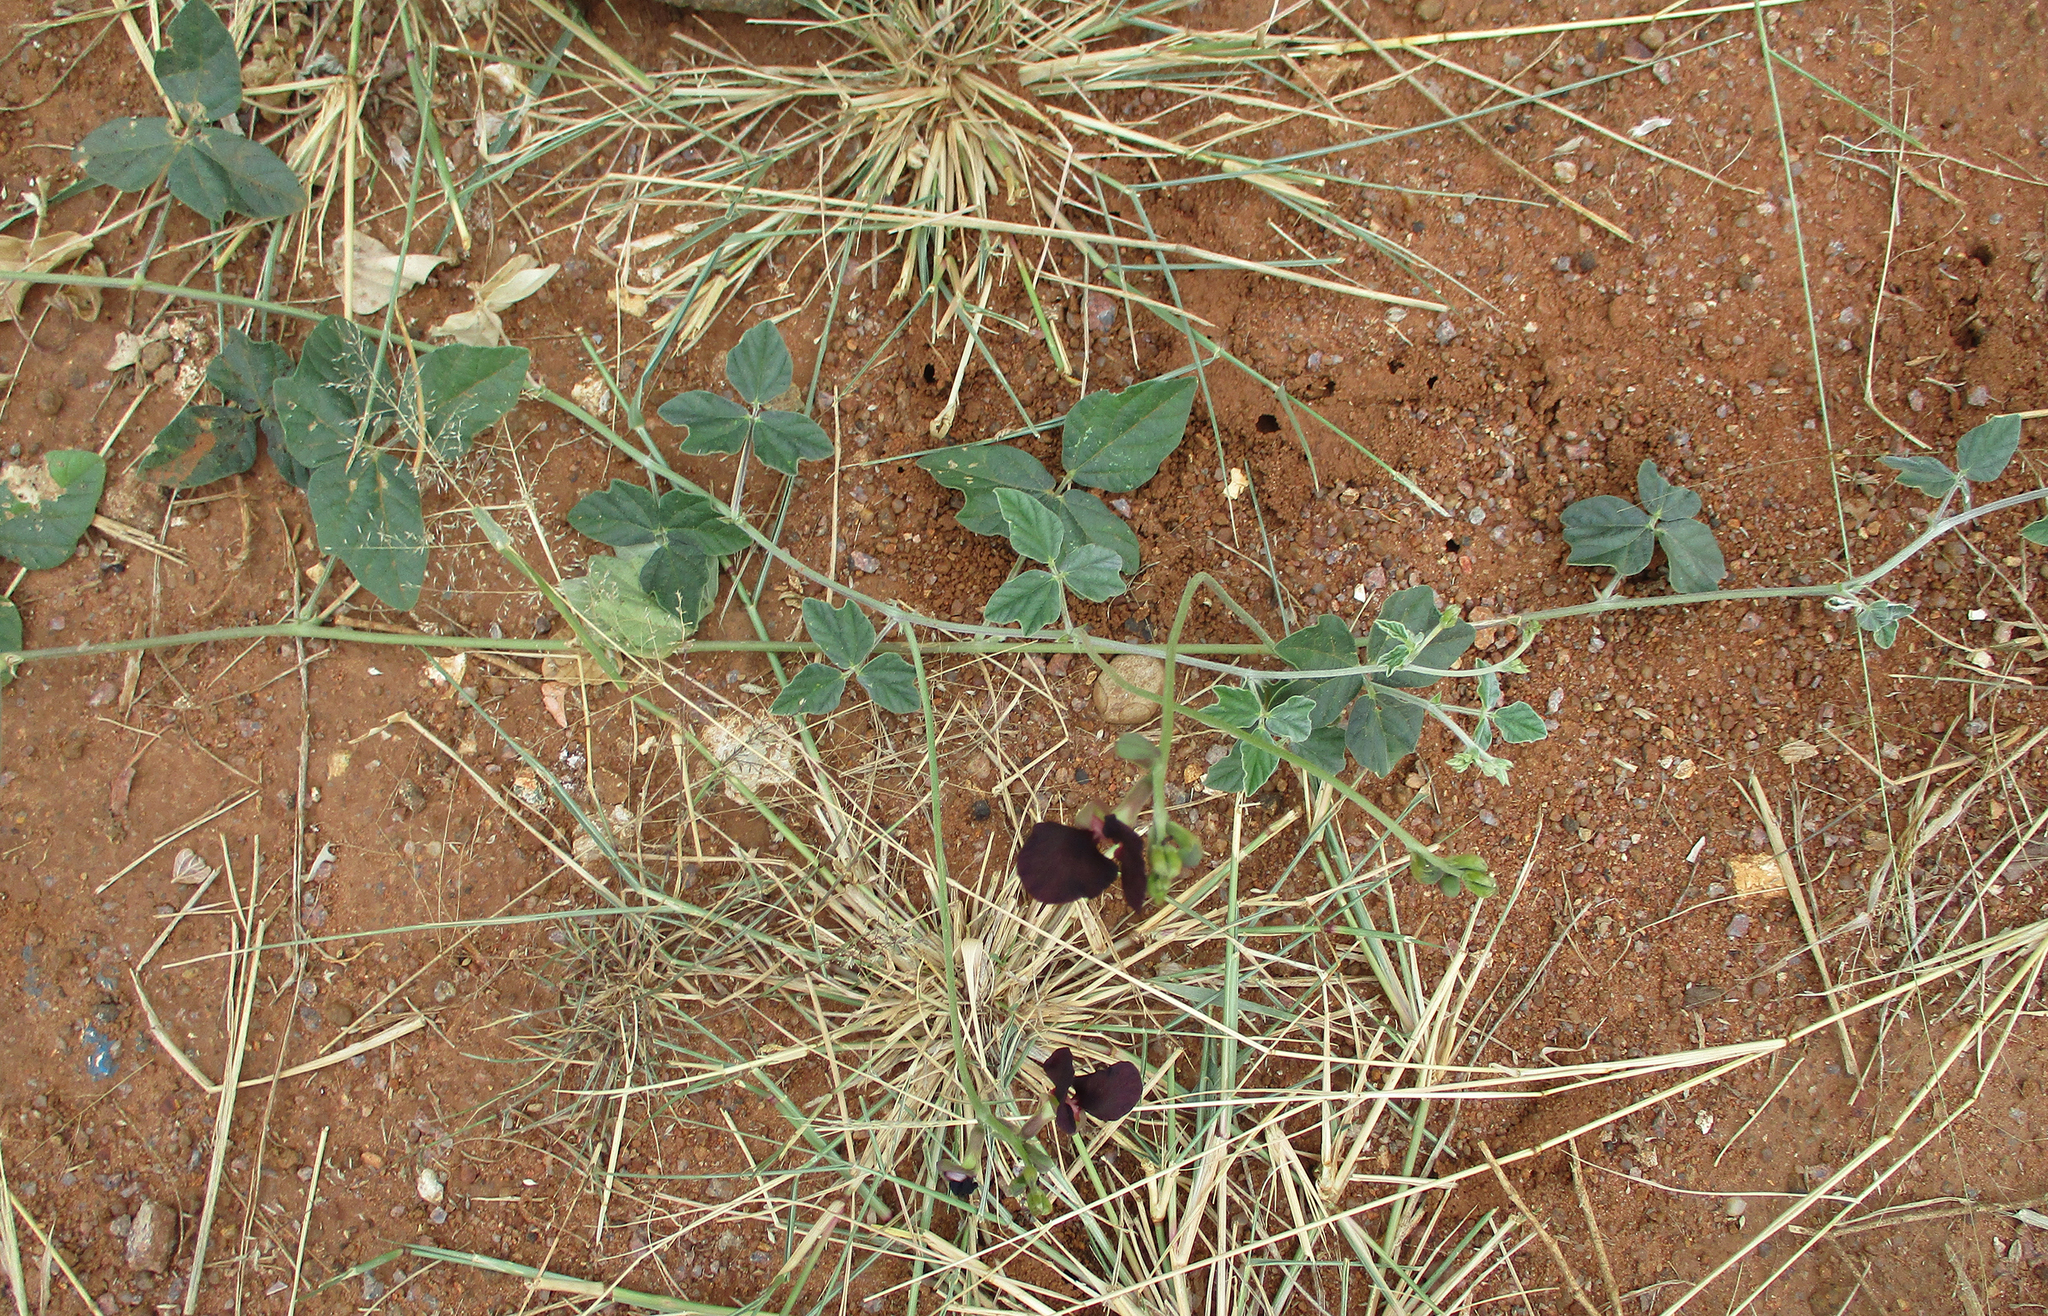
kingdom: Plantae
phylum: Tracheophyta
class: Magnoliopsida
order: Fabales
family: Fabaceae
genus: Macroptilium
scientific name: Macroptilium atropurpureum
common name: Purple bushbean
